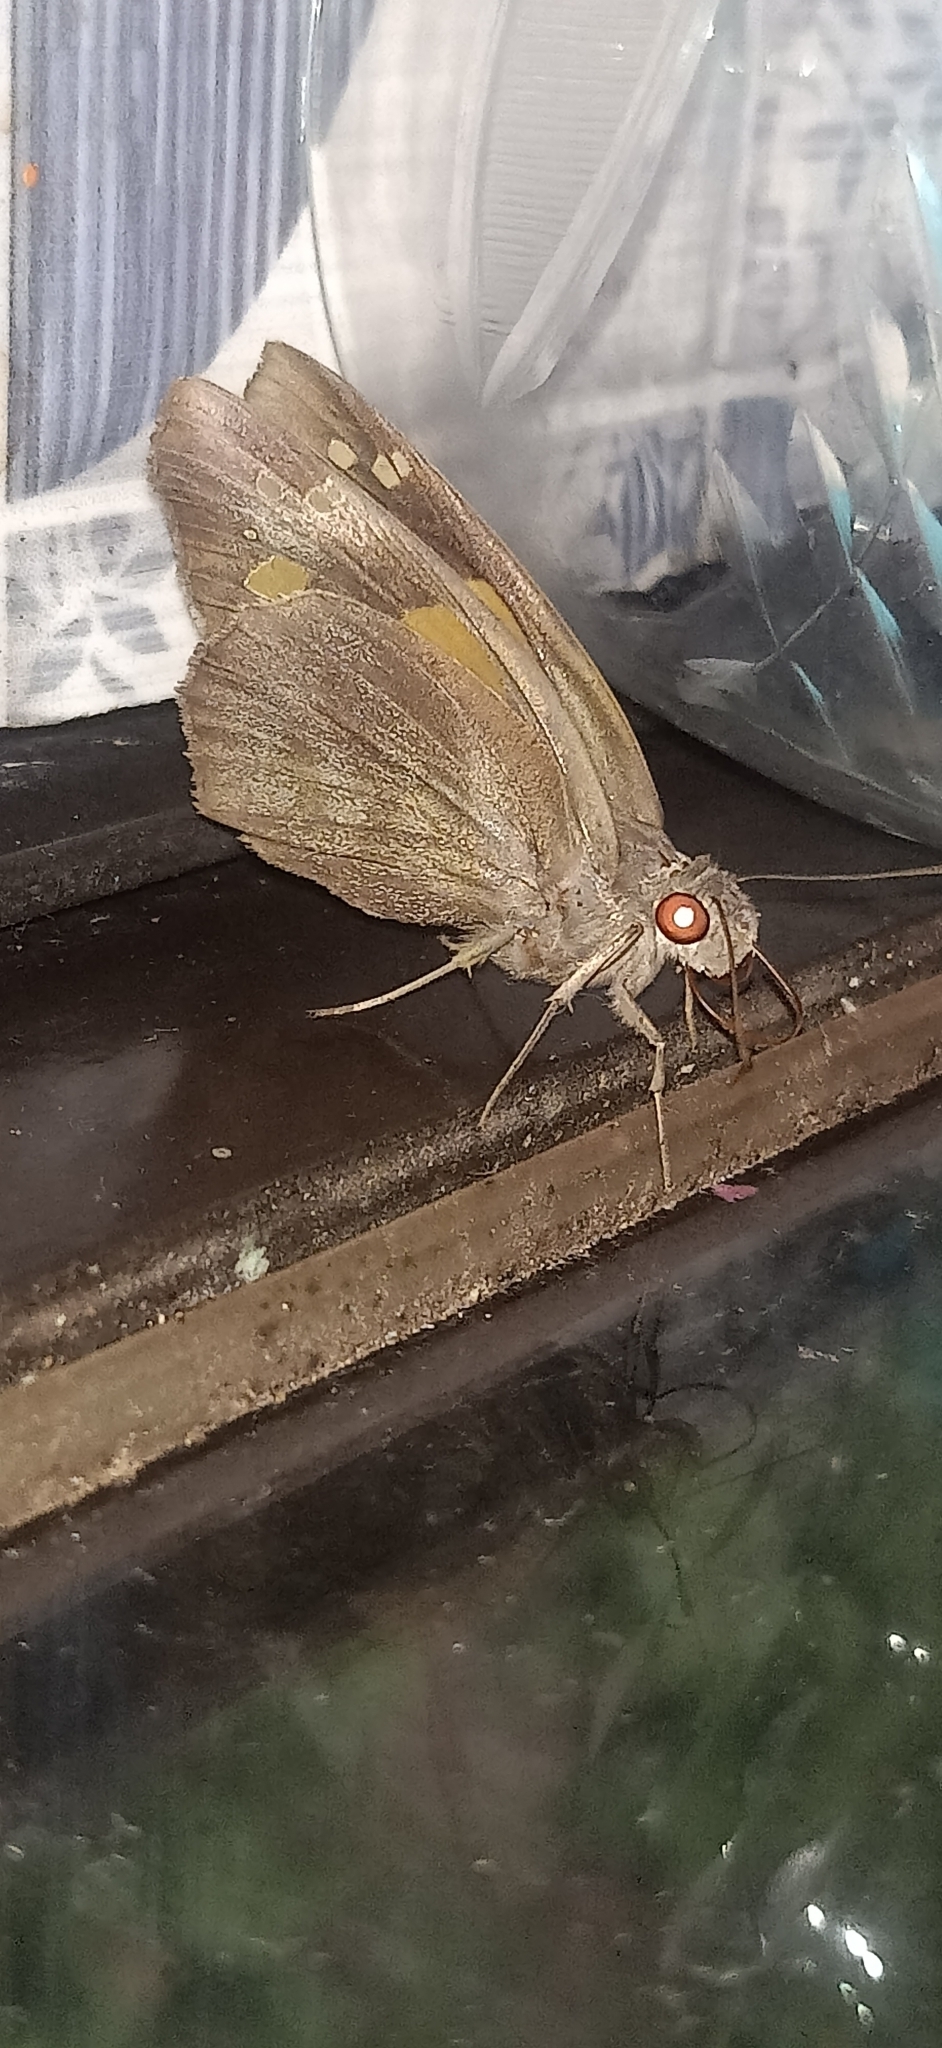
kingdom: Animalia
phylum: Arthropoda
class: Insecta
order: Lepidoptera
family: Hesperiidae
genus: Gangara
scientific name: Gangara thyrsis
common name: Giant redeye
